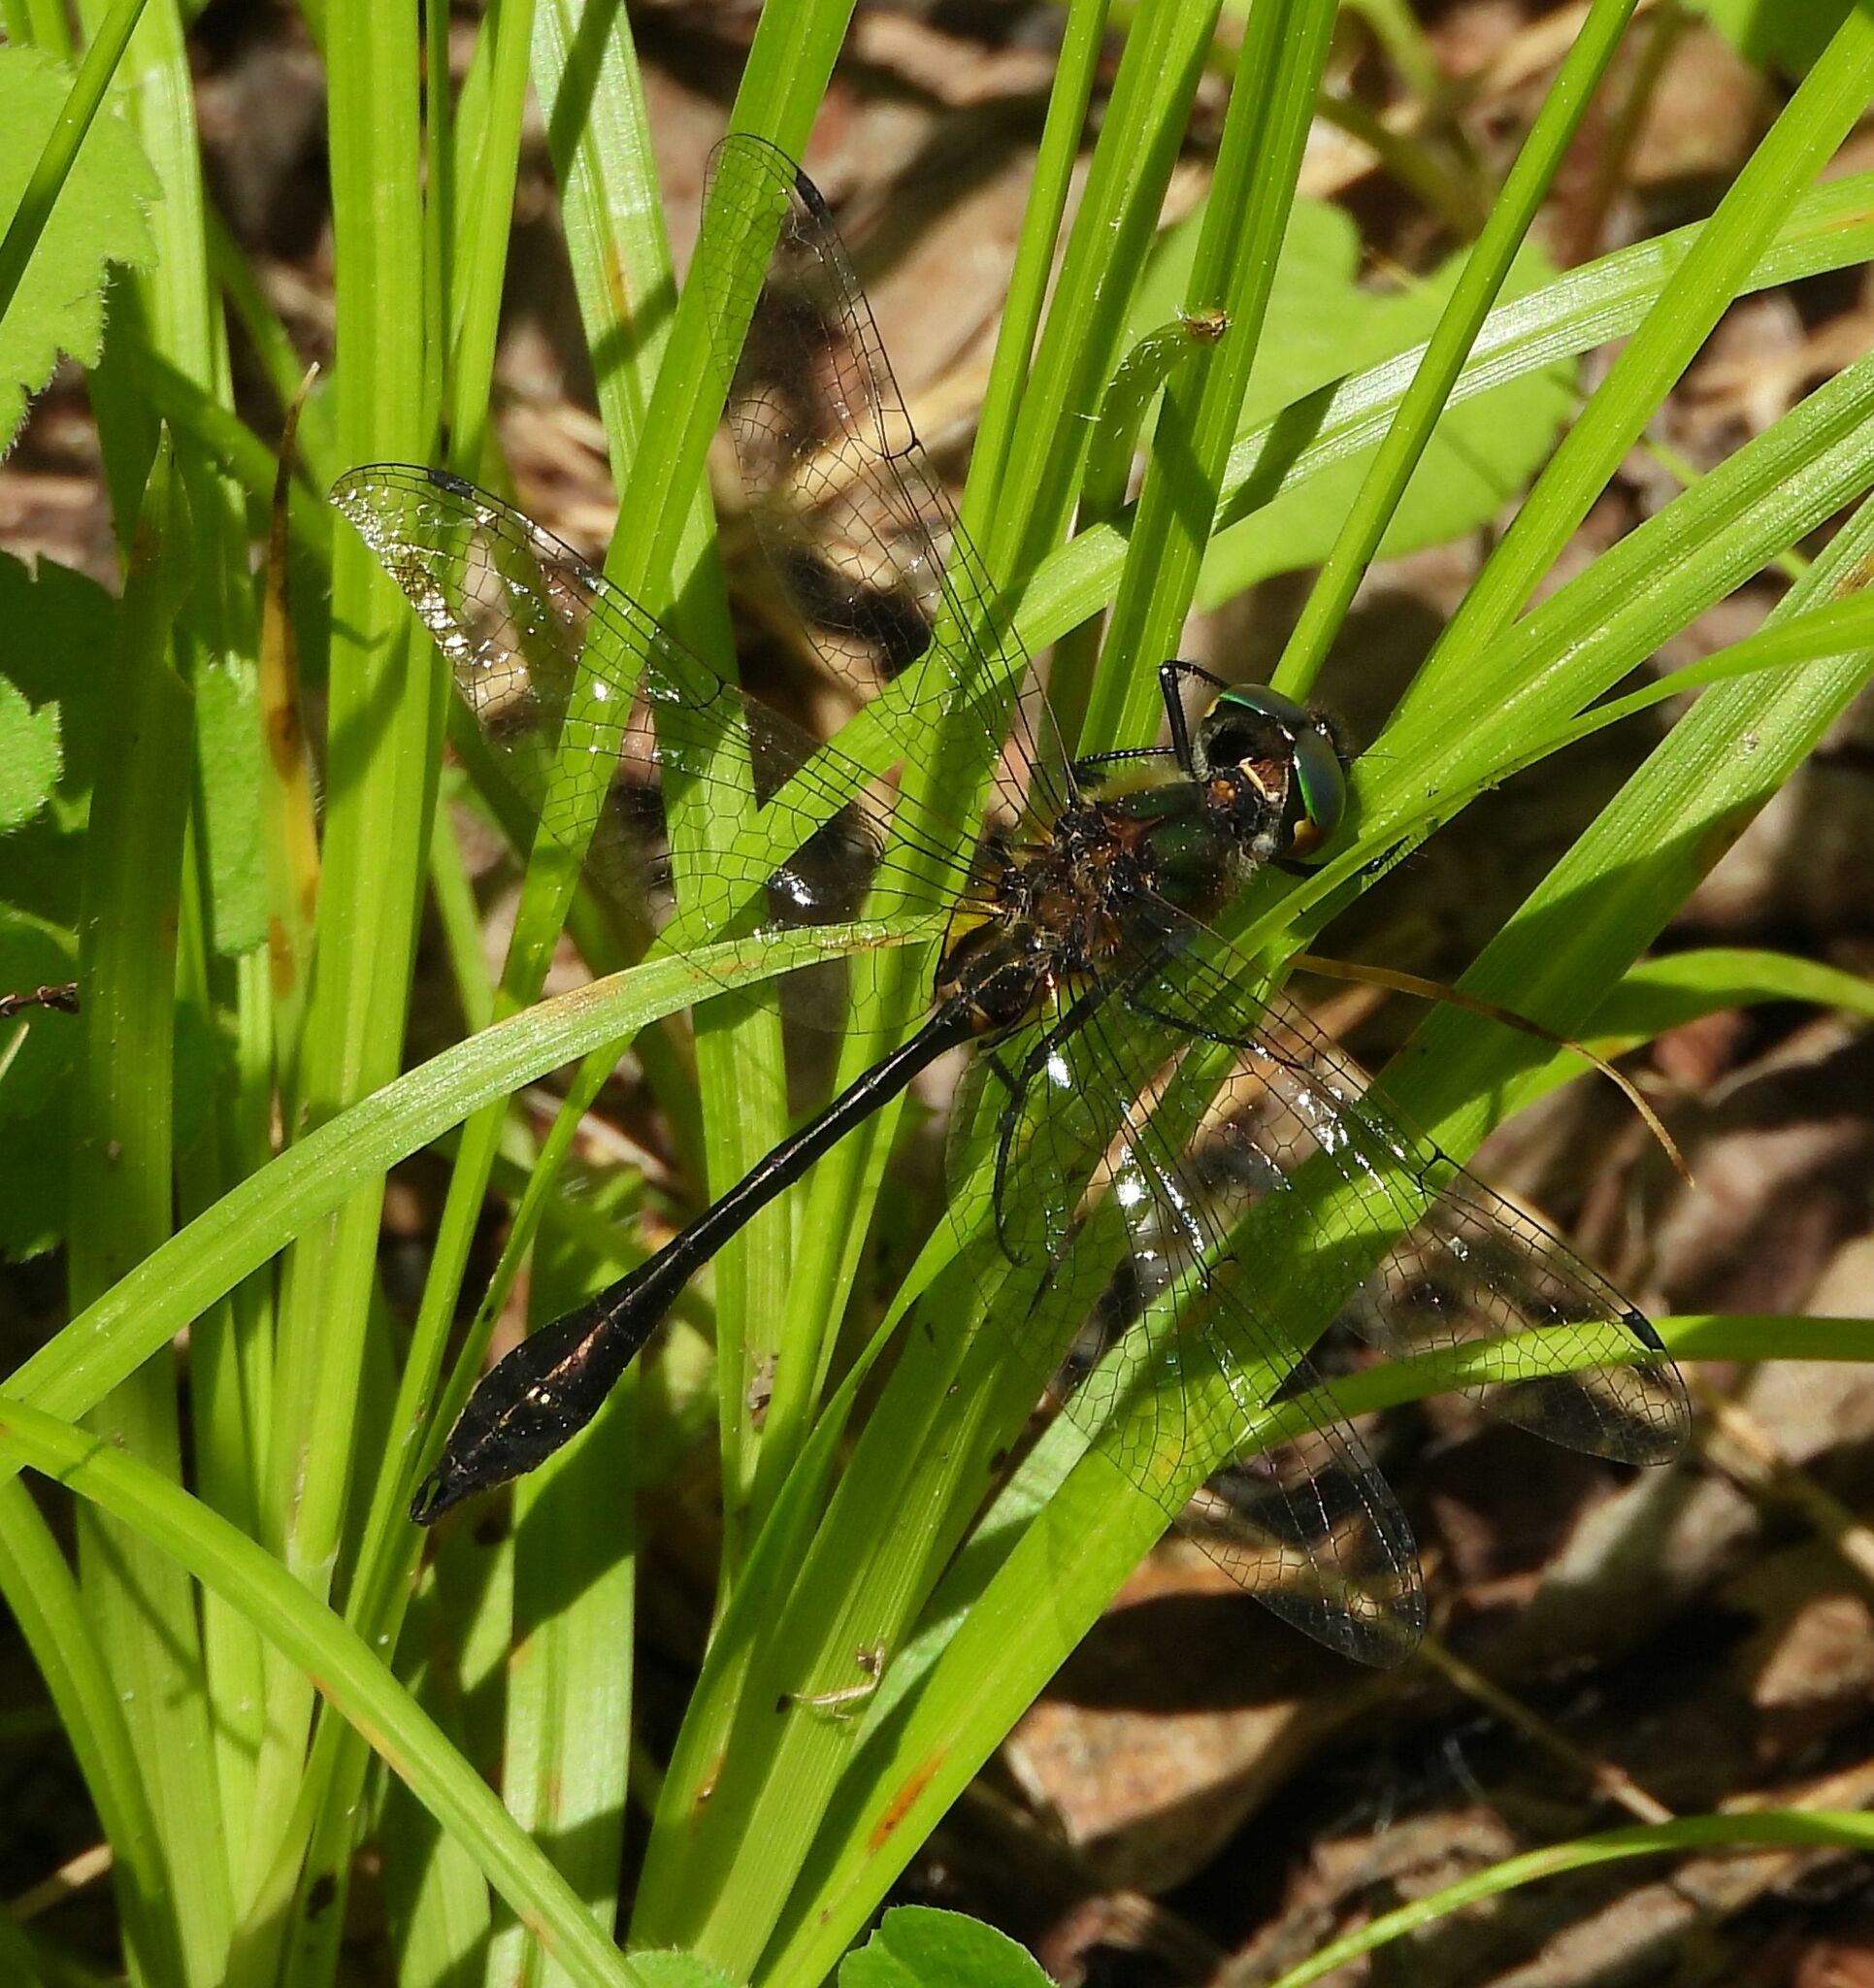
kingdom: Animalia
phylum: Arthropoda
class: Insecta
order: Odonata
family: Corduliidae
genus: Dorocordulia
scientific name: Dorocordulia libera
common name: Racket-tailed emerald
